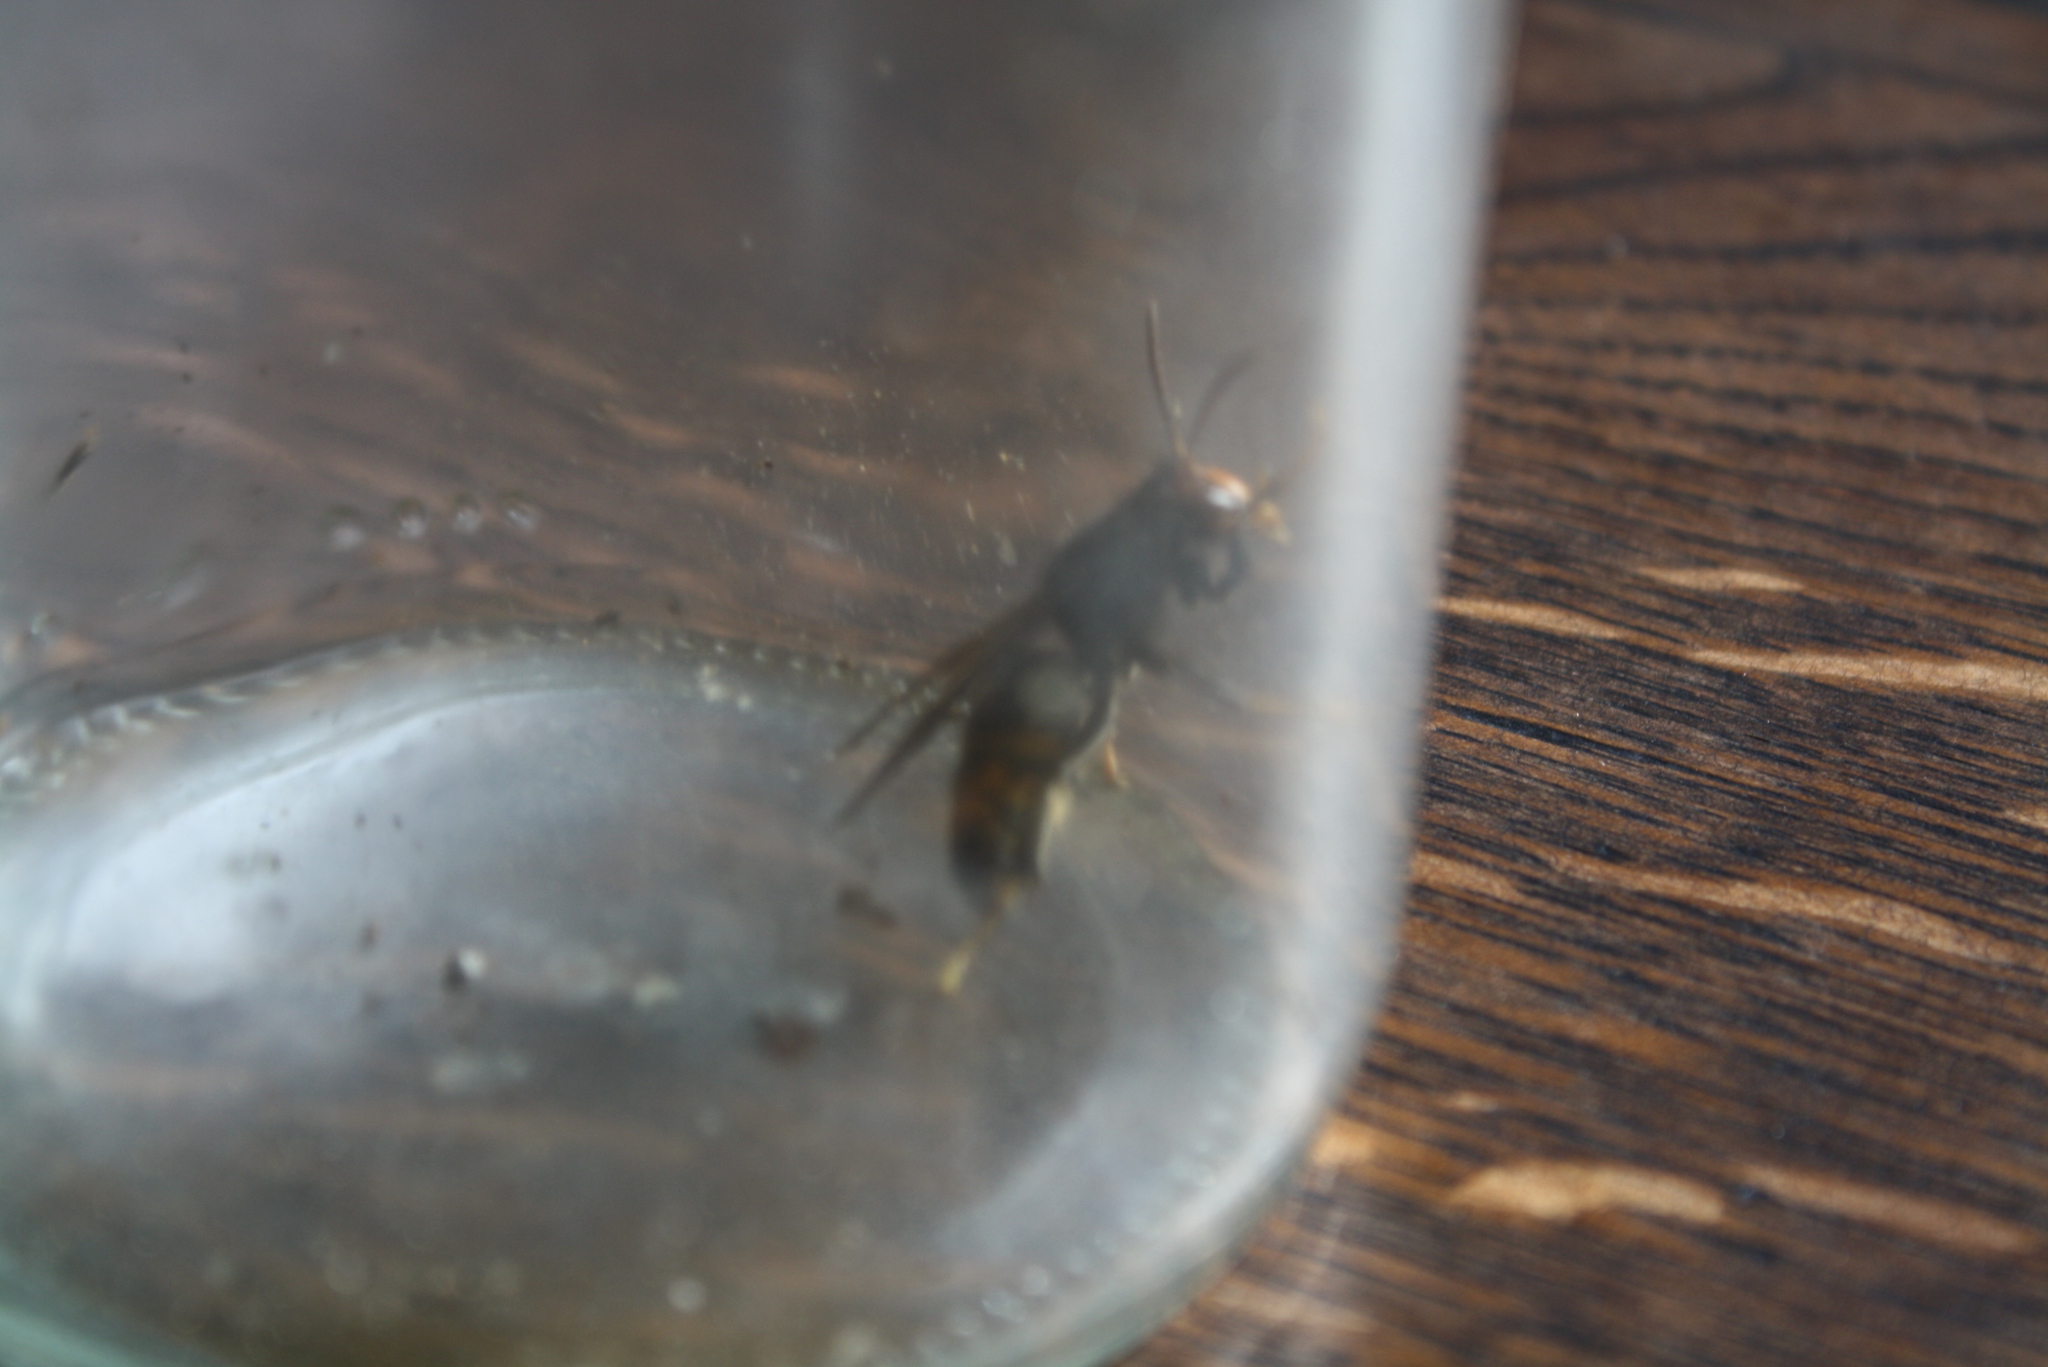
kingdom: Animalia
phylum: Arthropoda
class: Insecta
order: Hymenoptera
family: Vespidae
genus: Vespa
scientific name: Vespa velutina
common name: Asian hornet
